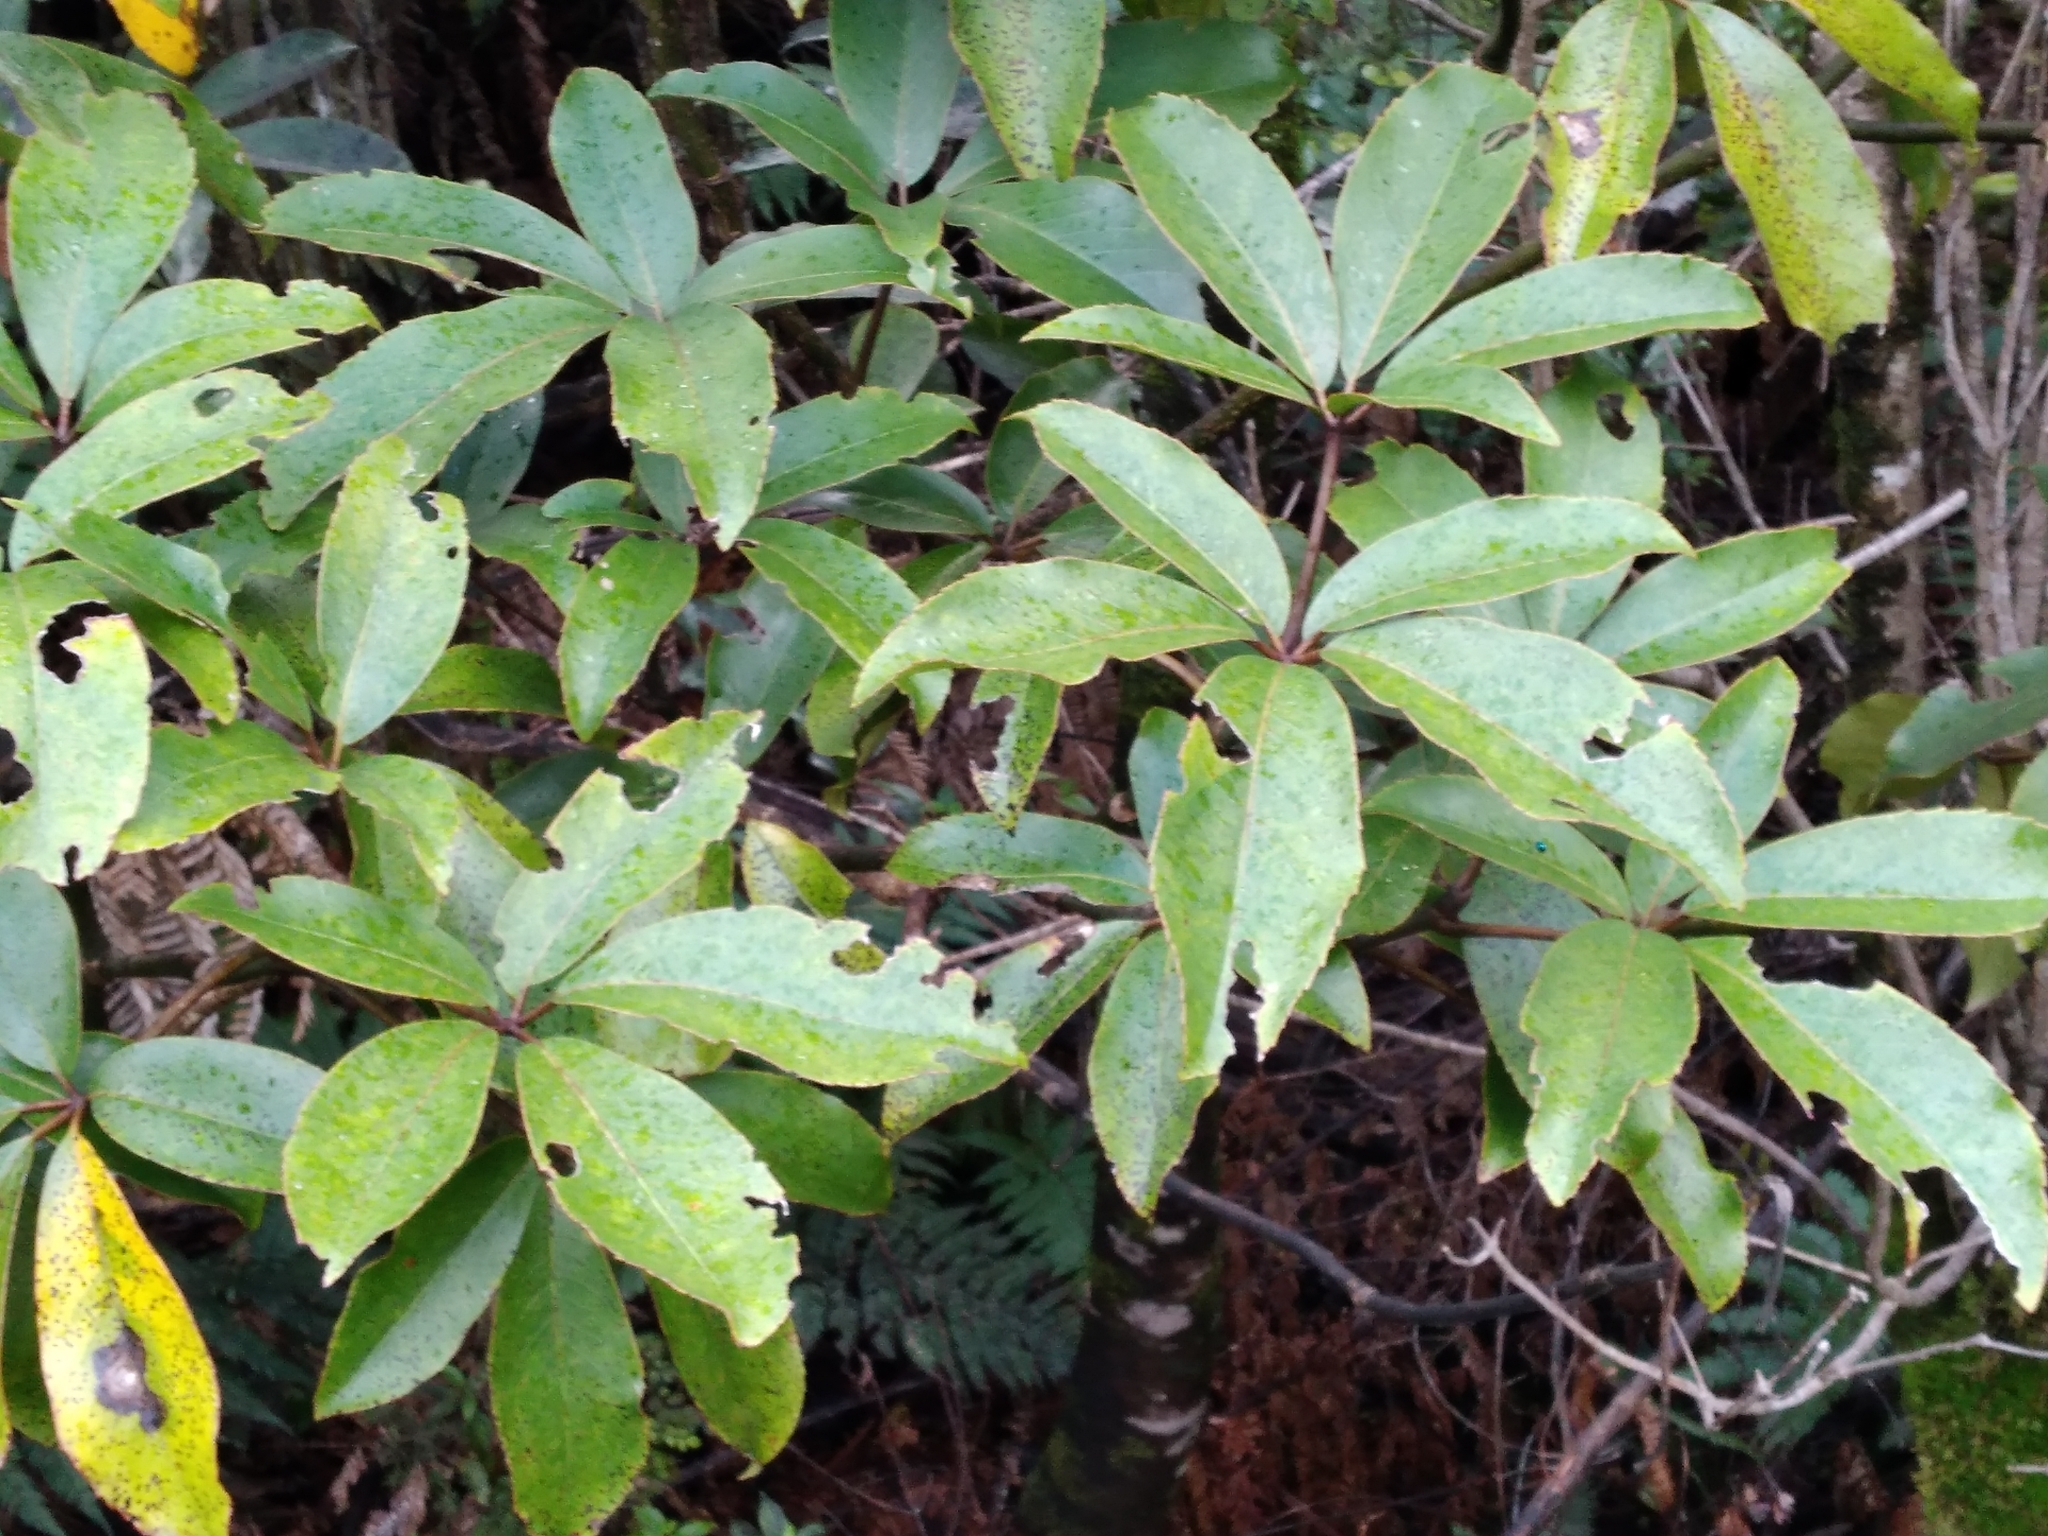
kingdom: Plantae
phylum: Tracheophyta
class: Magnoliopsida
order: Apiales
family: Araliaceae
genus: Neopanax
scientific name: Neopanax laetus
